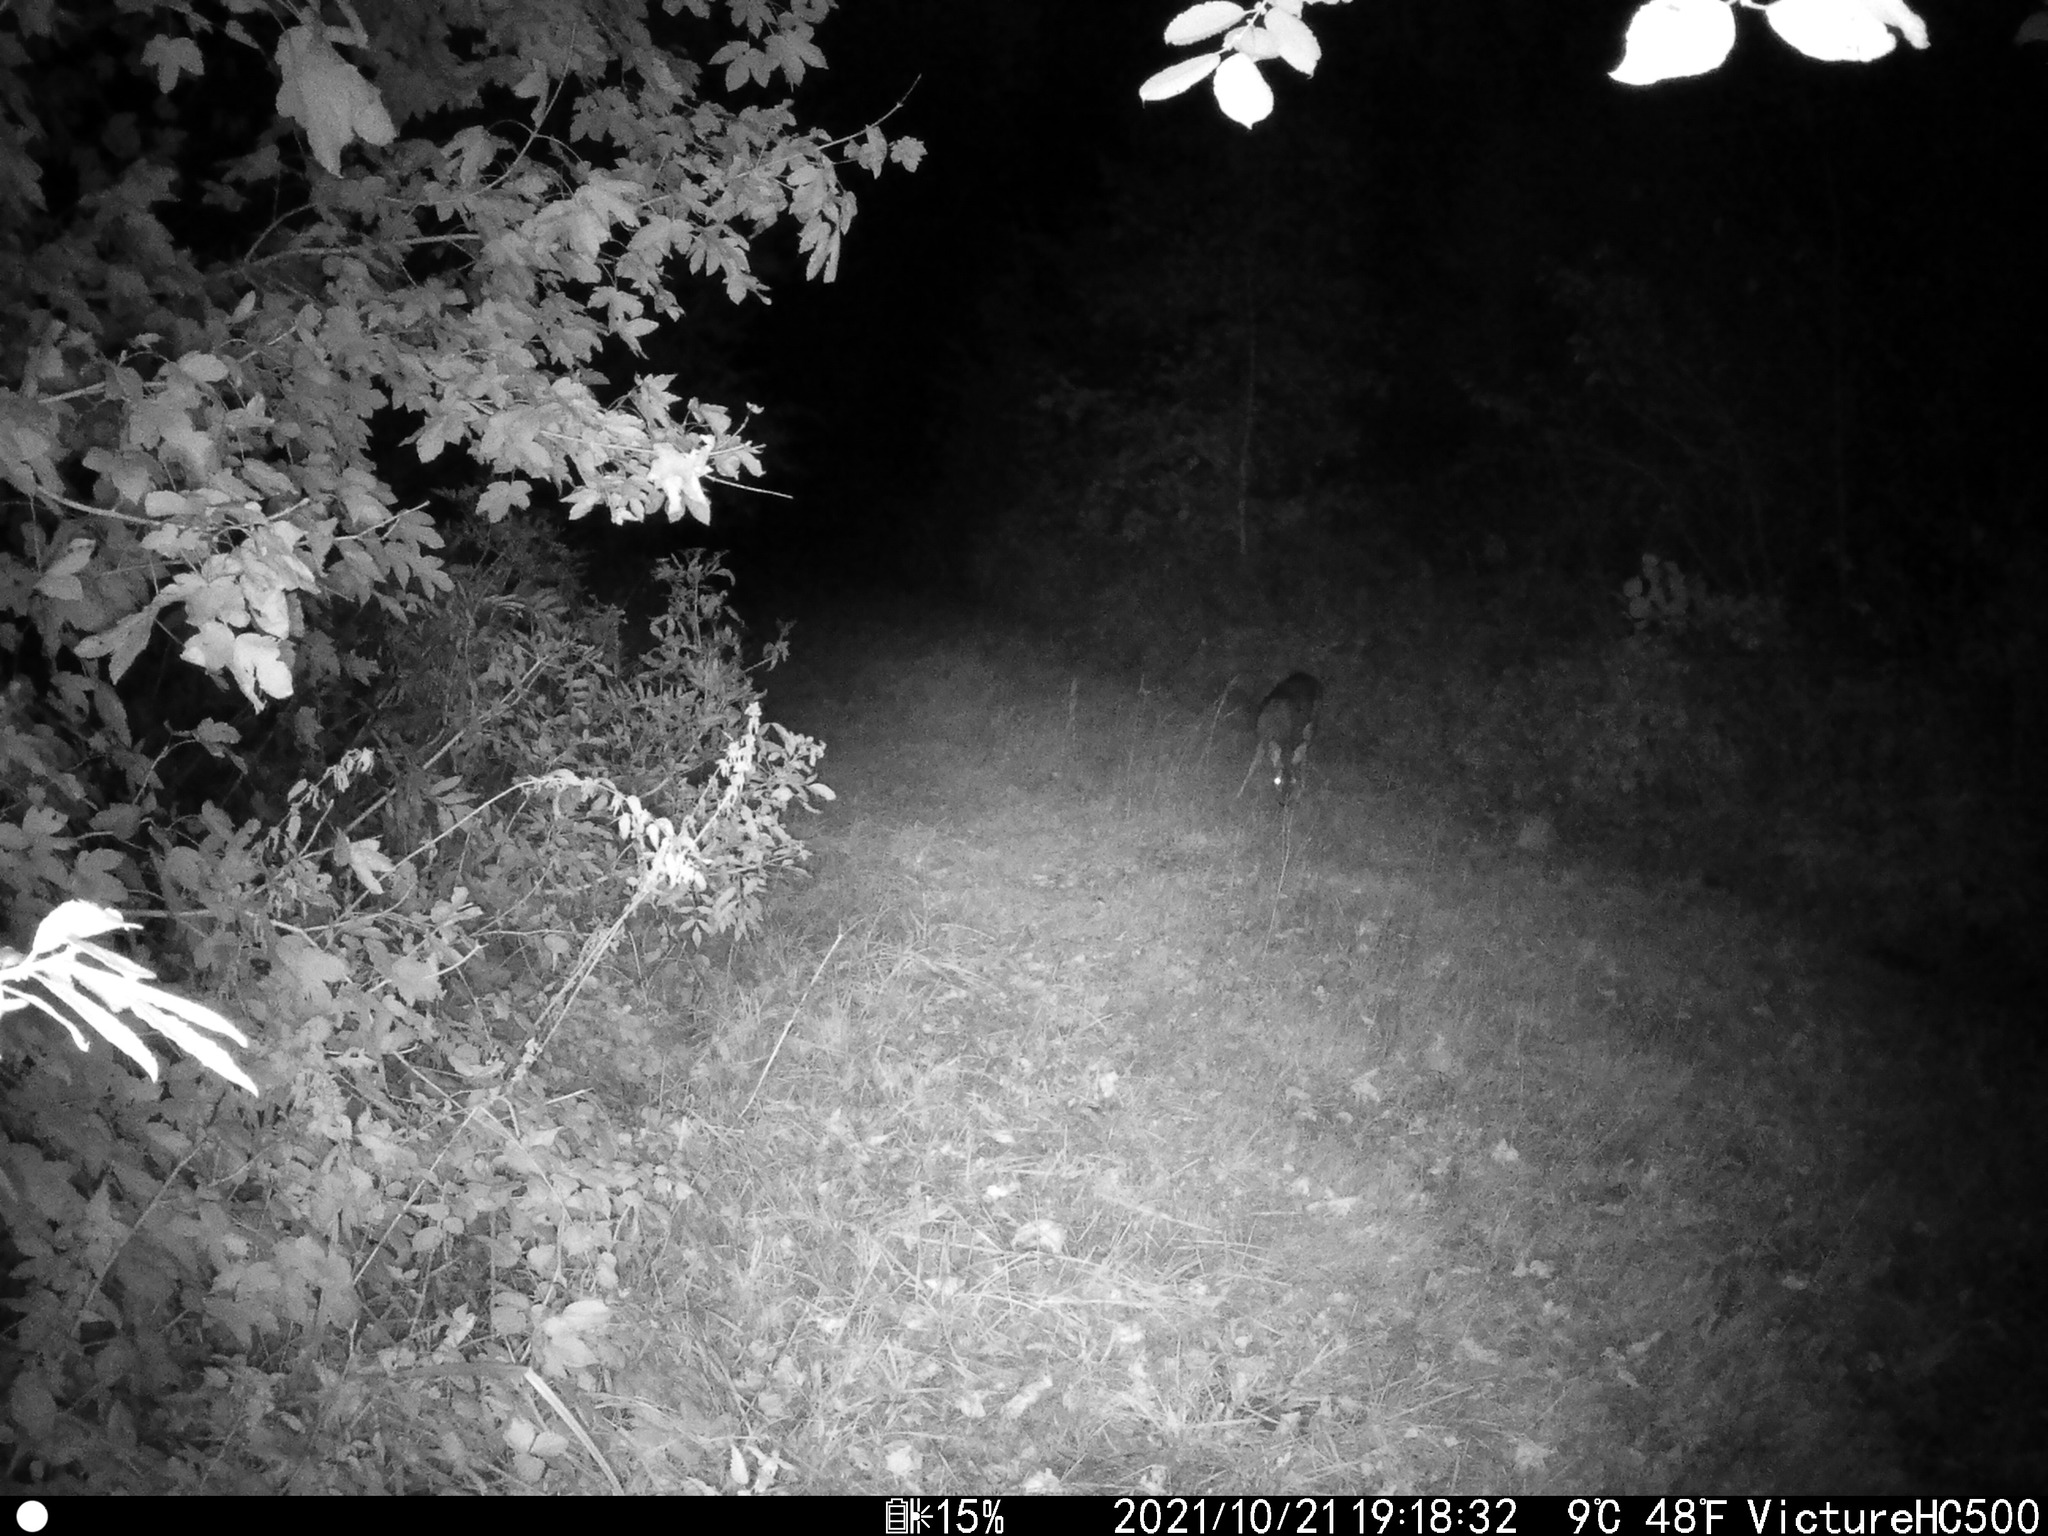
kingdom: Animalia
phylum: Chordata
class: Mammalia
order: Artiodactyla
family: Cervidae
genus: Capreolus
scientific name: Capreolus capreolus
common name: Western roe deer
